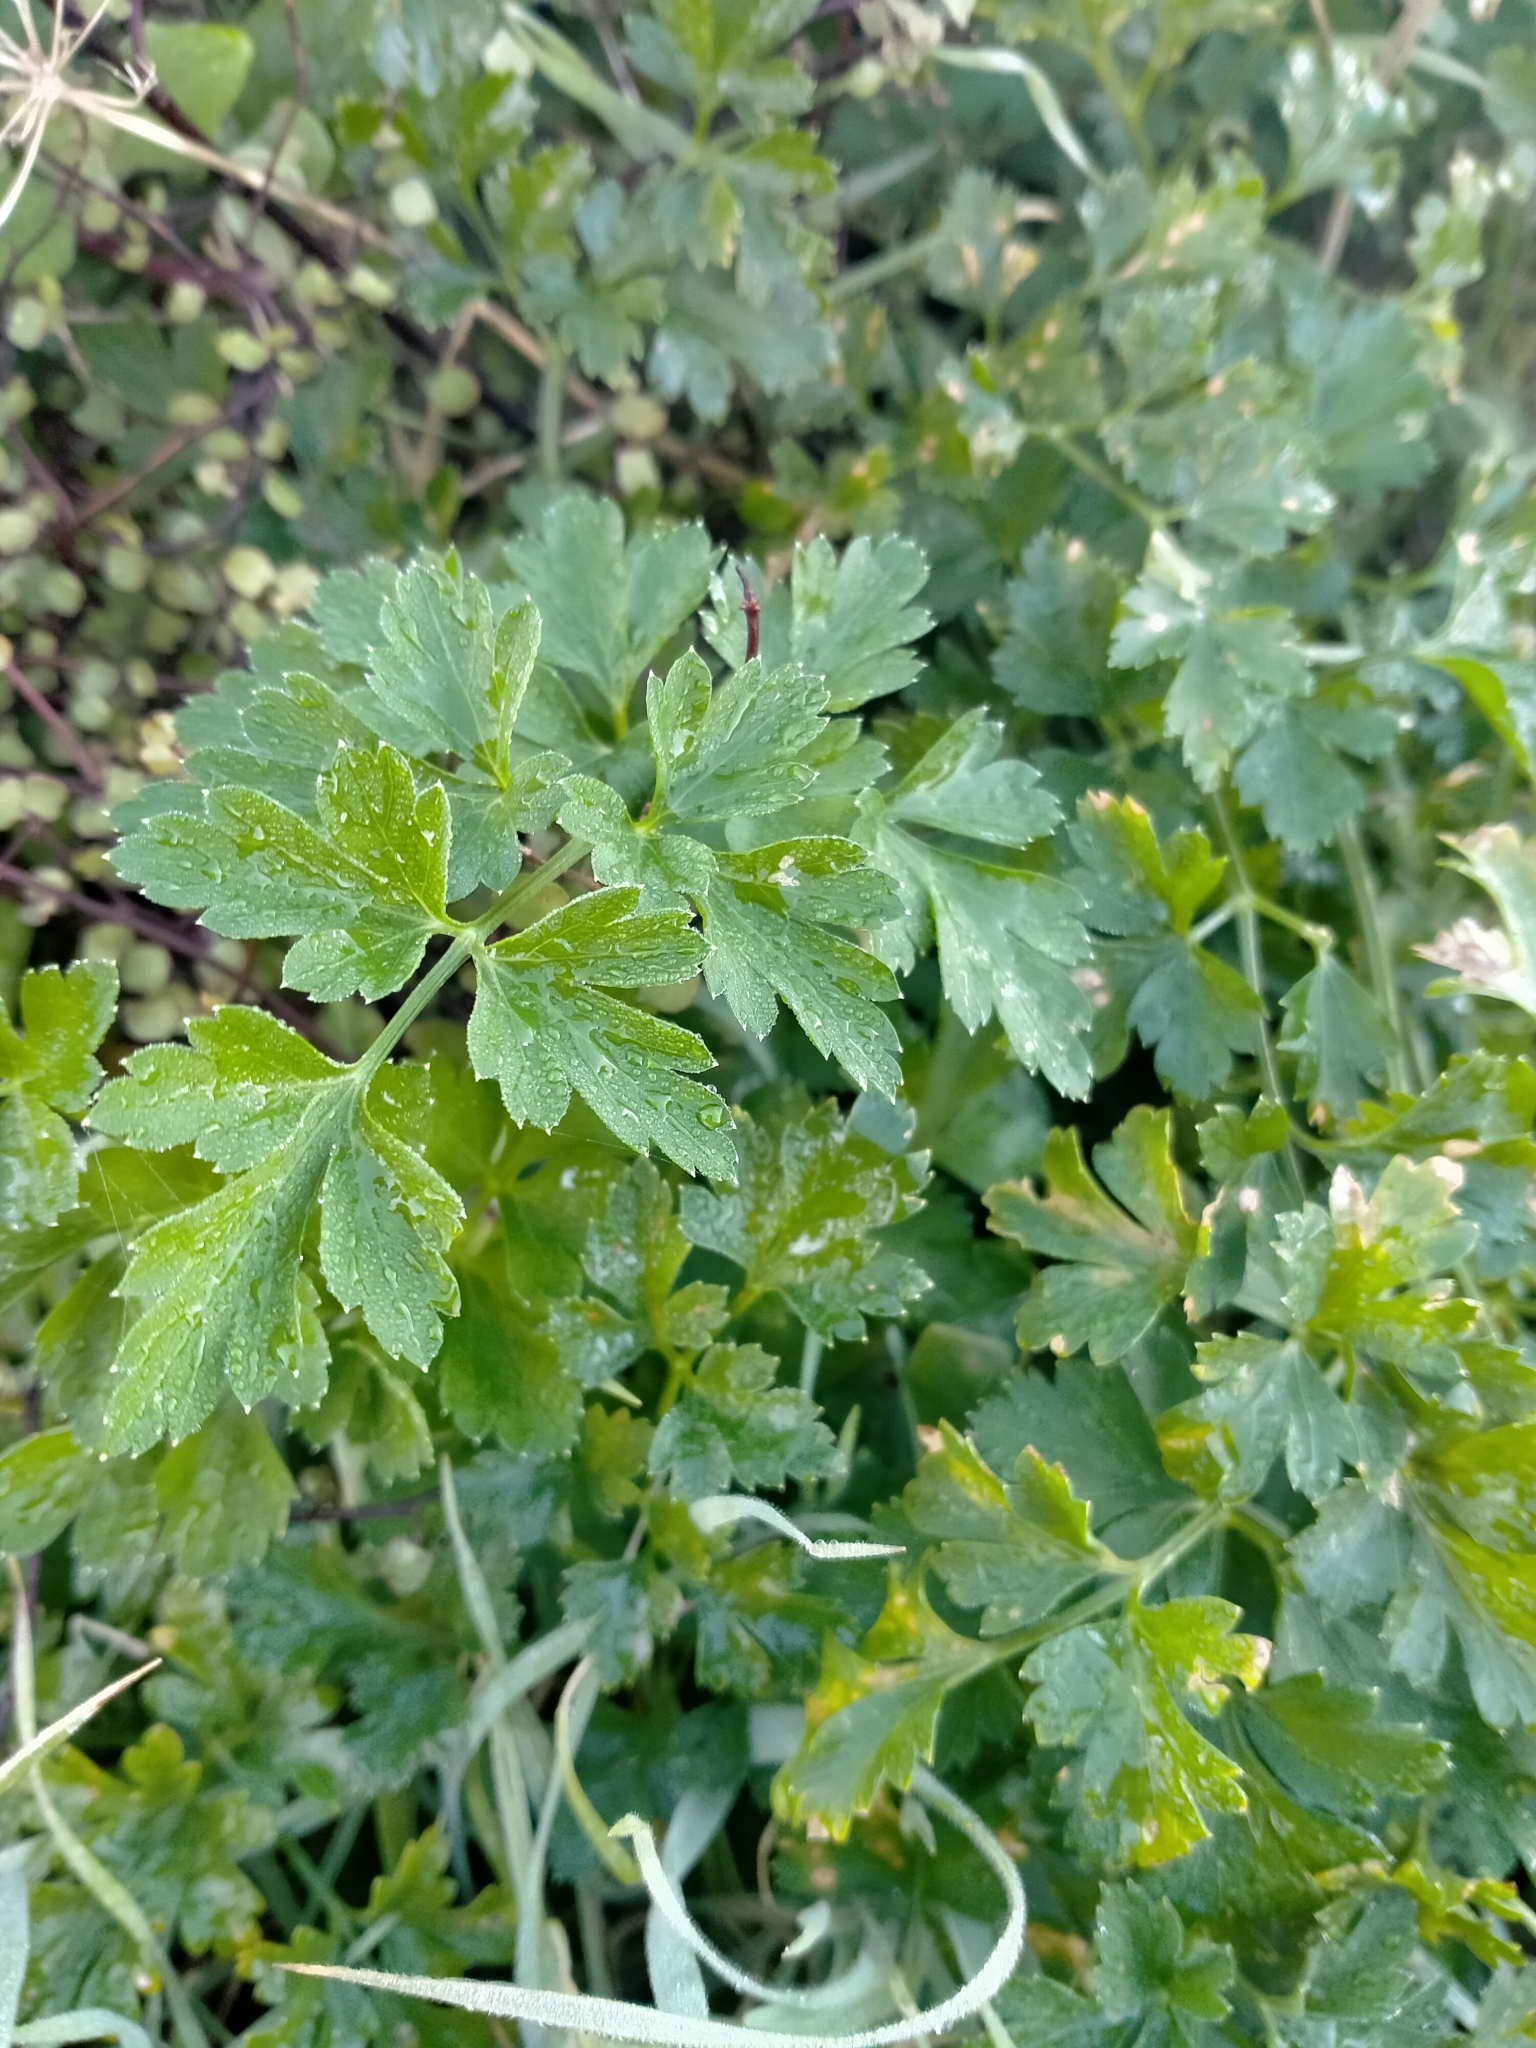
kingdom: Plantae
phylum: Tracheophyta
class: Magnoliopsida
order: Apiales
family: Apiaceae
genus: Petroselinum
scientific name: Petroselinum crispum
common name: Parsley
